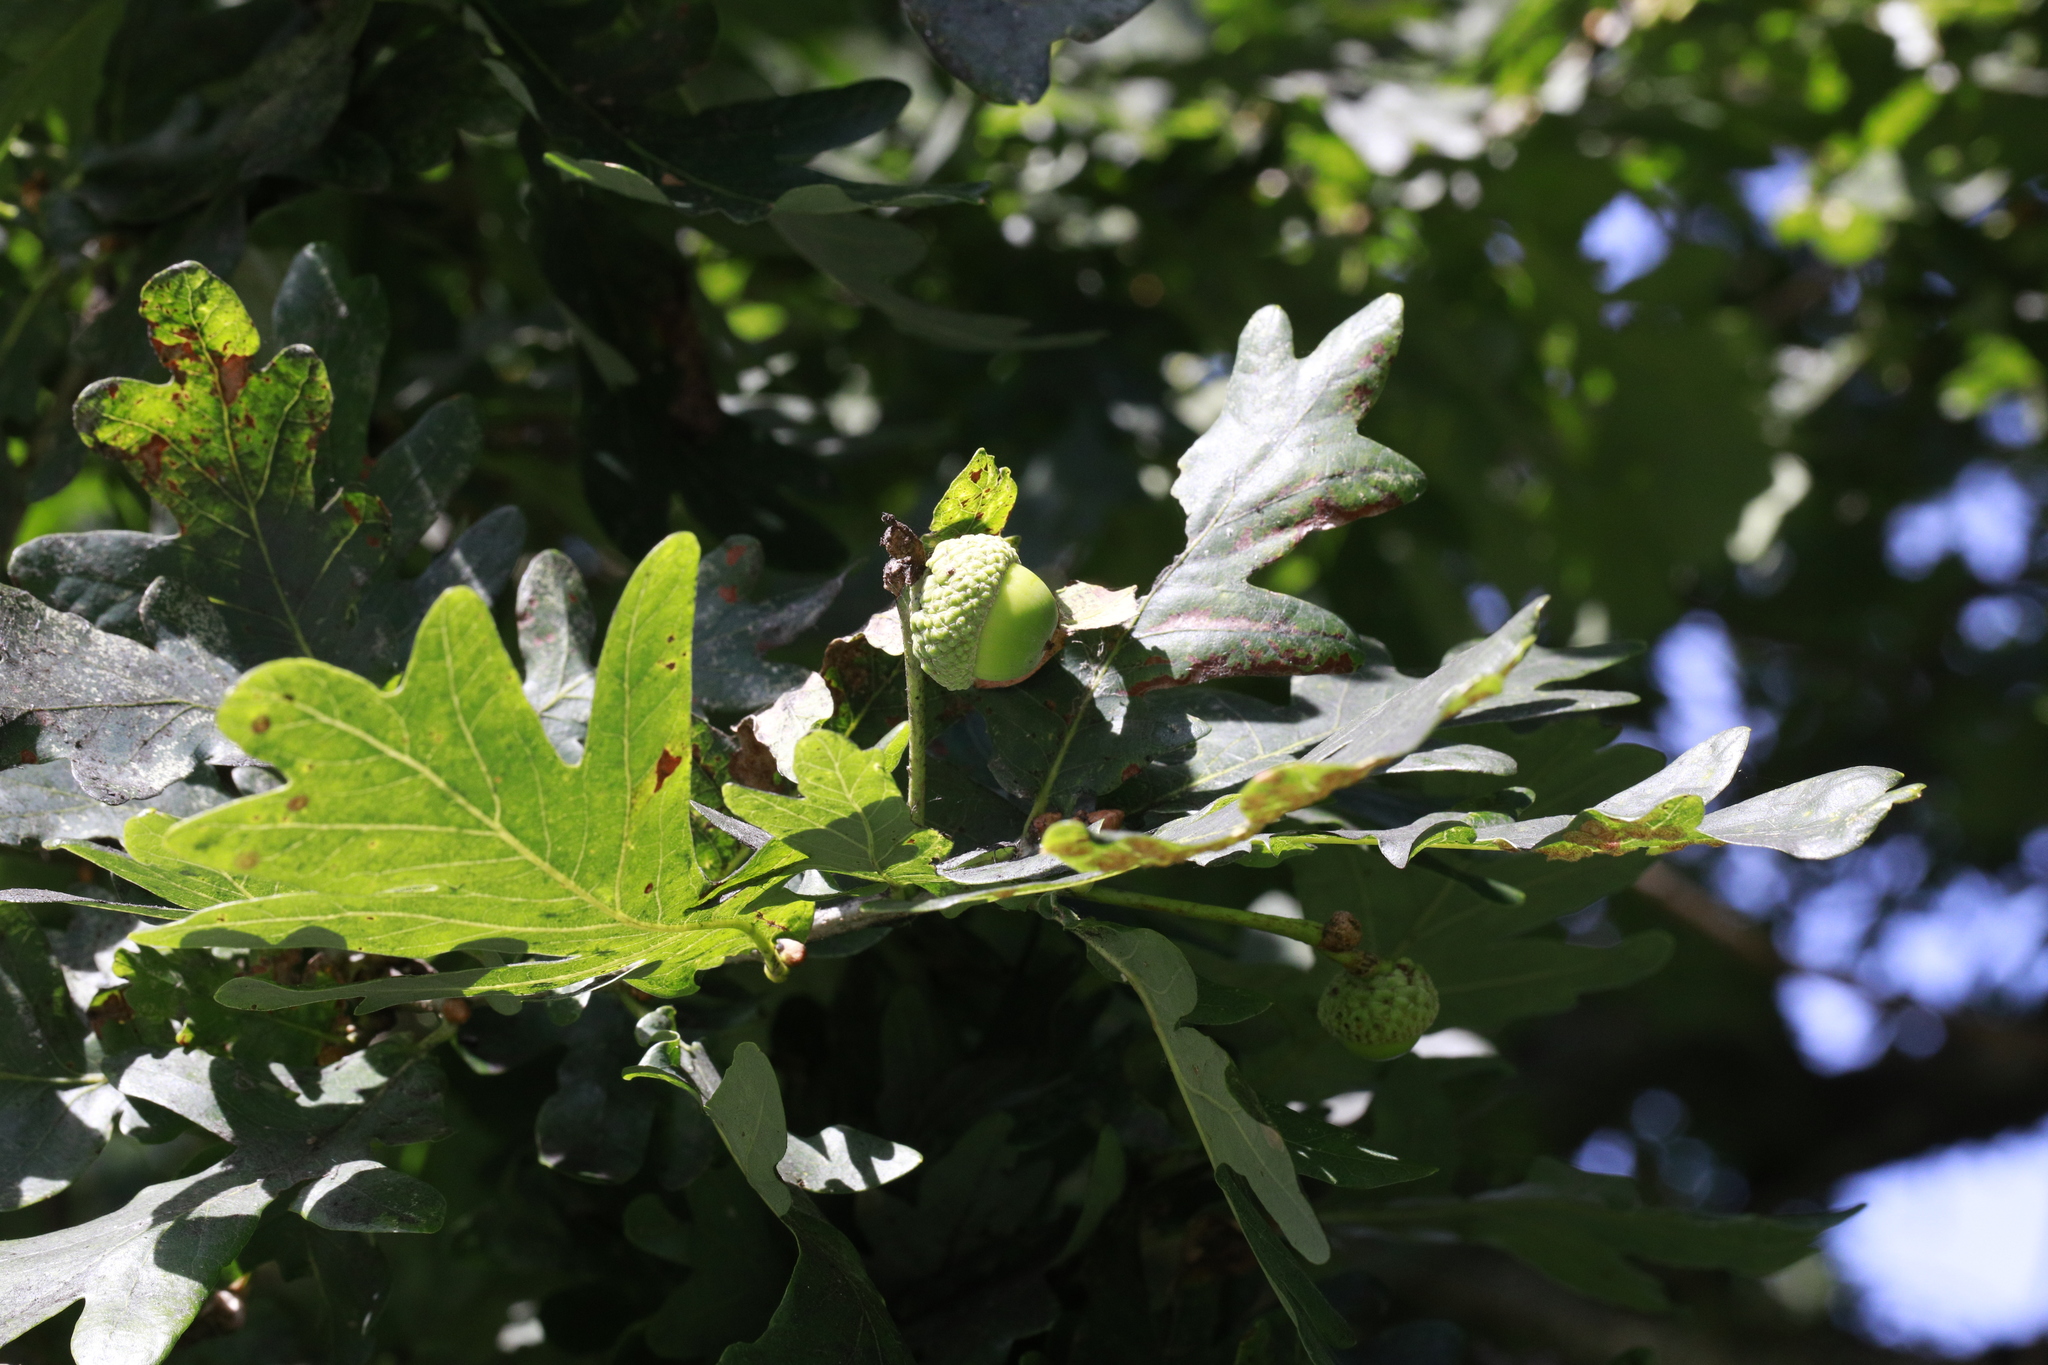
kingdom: Plantae
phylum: Tracheophyta
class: Magnoliopsida
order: Fagales
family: Fagaceae
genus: Quercus
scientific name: Quercus robur
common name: Pedunculate oak
